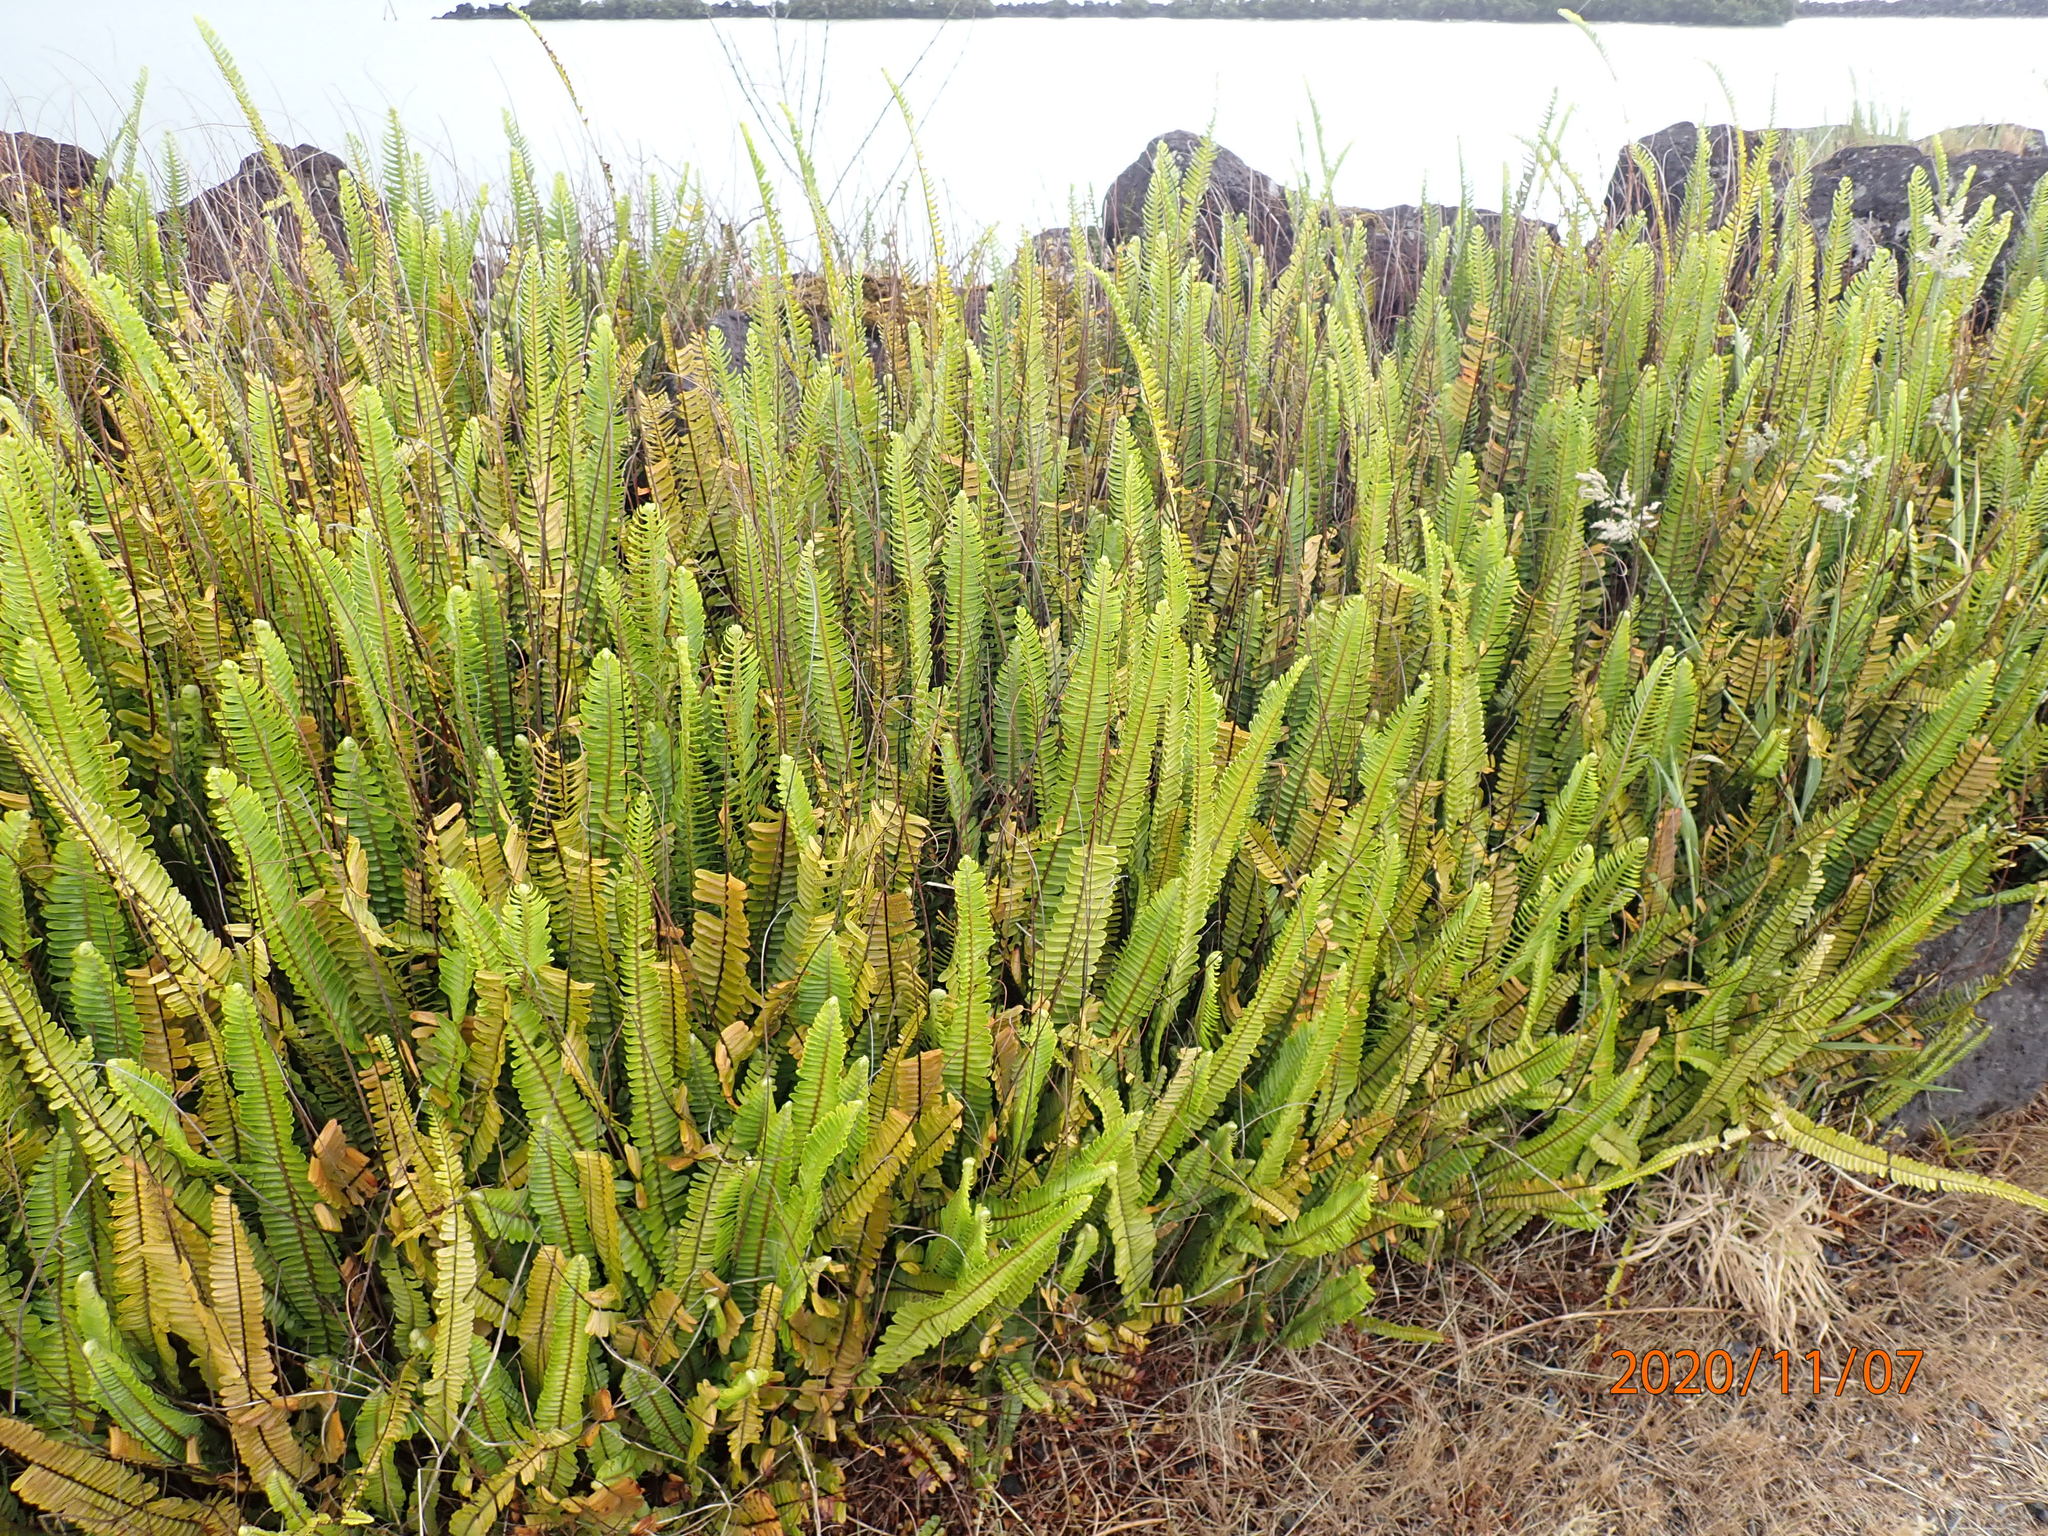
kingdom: Plantae
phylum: Tracheophyta
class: Polypodiopsida
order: Polypodiales
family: Nephrolepidaceae
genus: Nephrolepis
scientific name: Nephrolepis cordifolia
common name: Narrow swordfern
